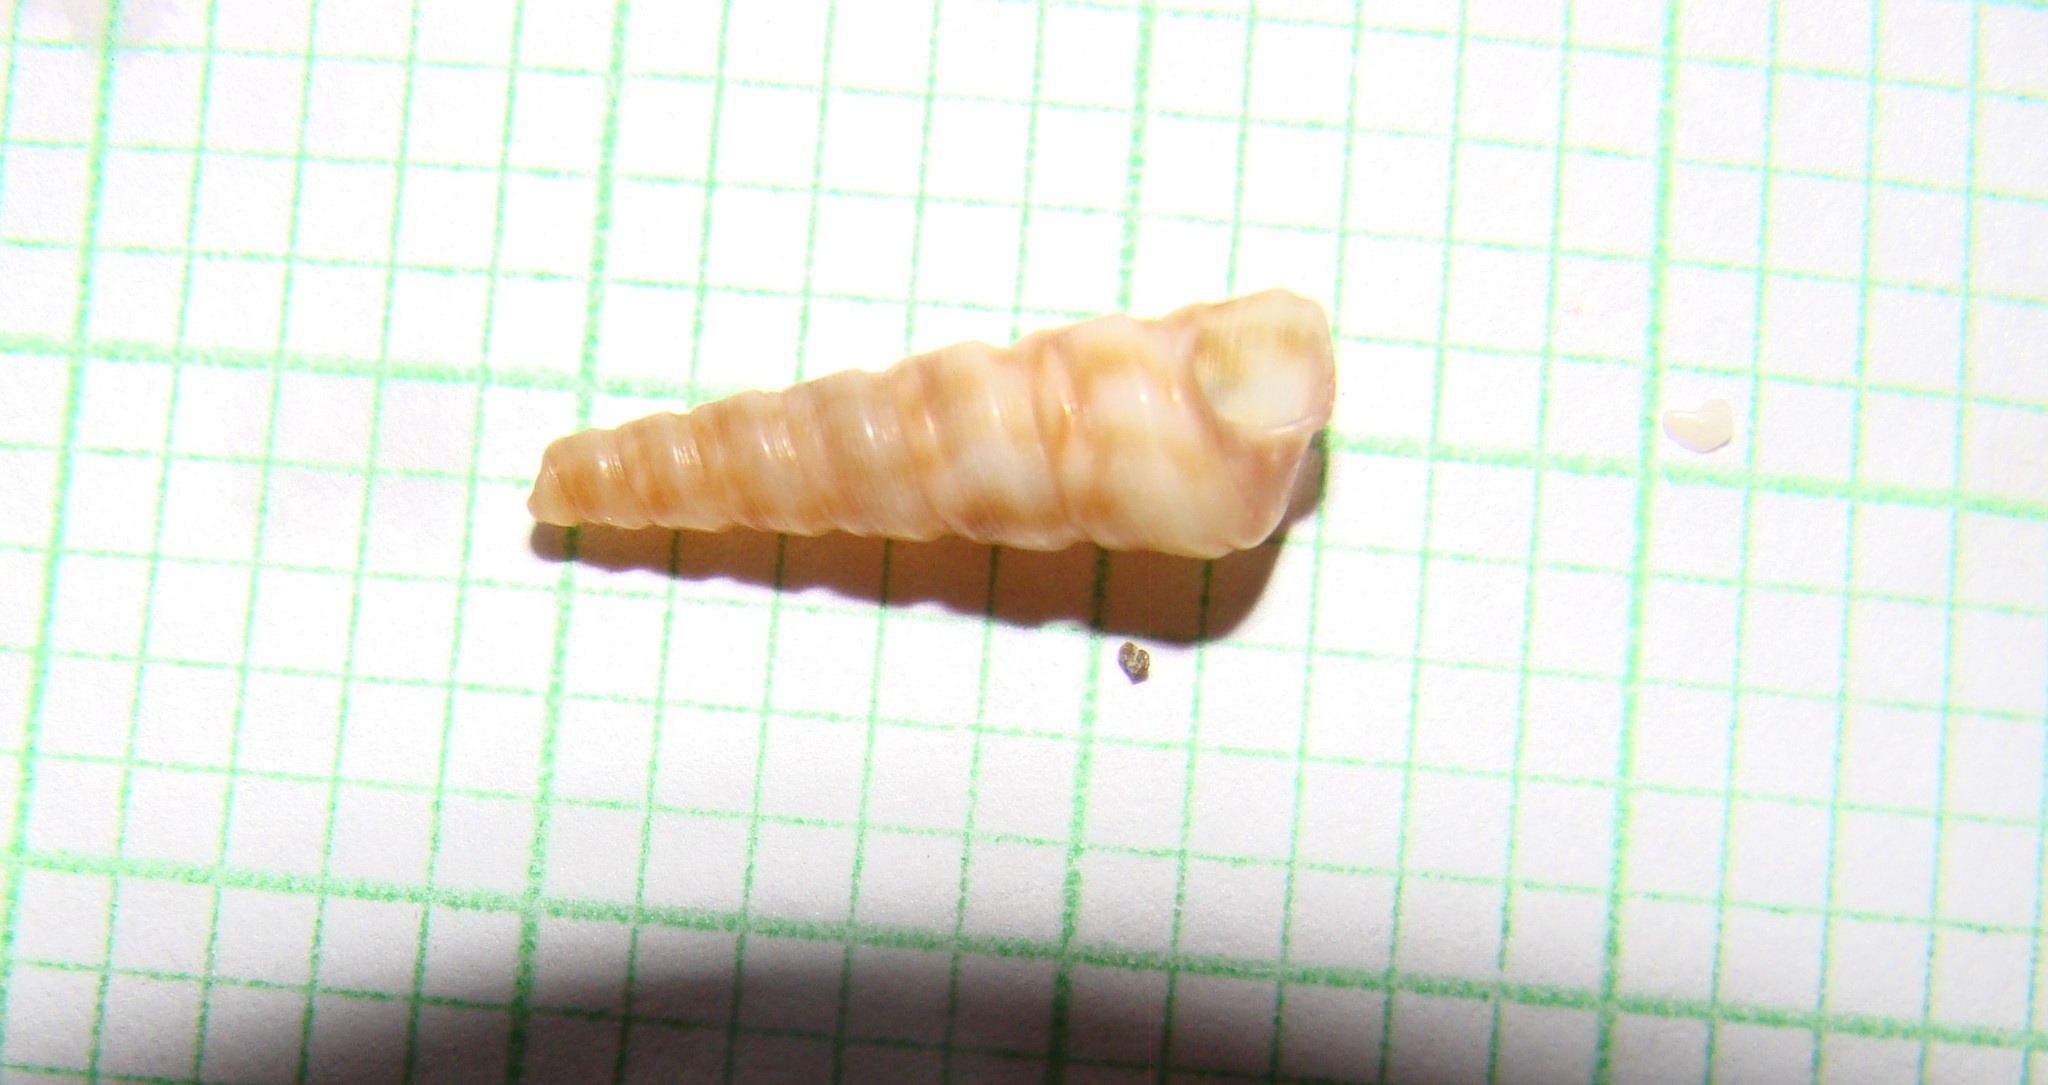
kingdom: Animalia
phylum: Mollusca
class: Gastropoda
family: Turritellidae
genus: Stiracolpus
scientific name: Stiracolpus pagoda
